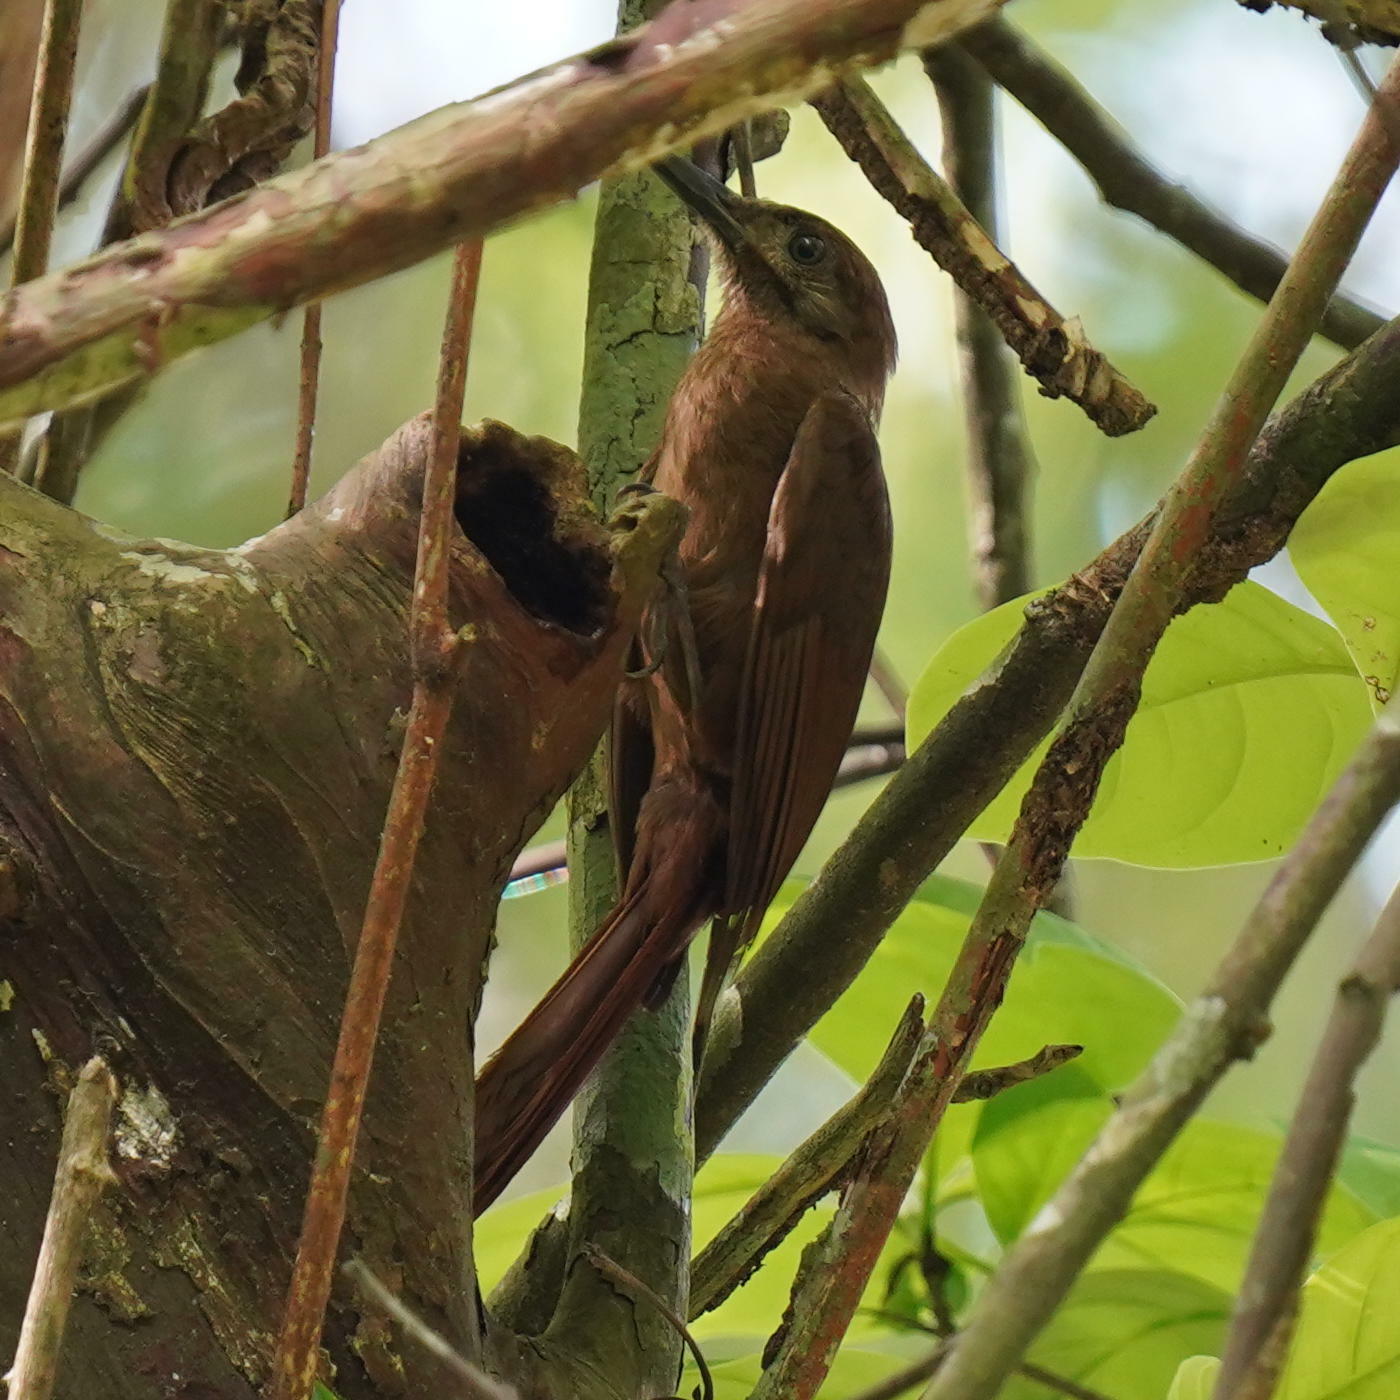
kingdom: Animalia
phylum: Chordata
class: Aves
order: Passeriformes
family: Furnariidae
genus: Dendrocincla
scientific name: Dendrocincla fuliginosa
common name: Plain-brown woodcreeper
